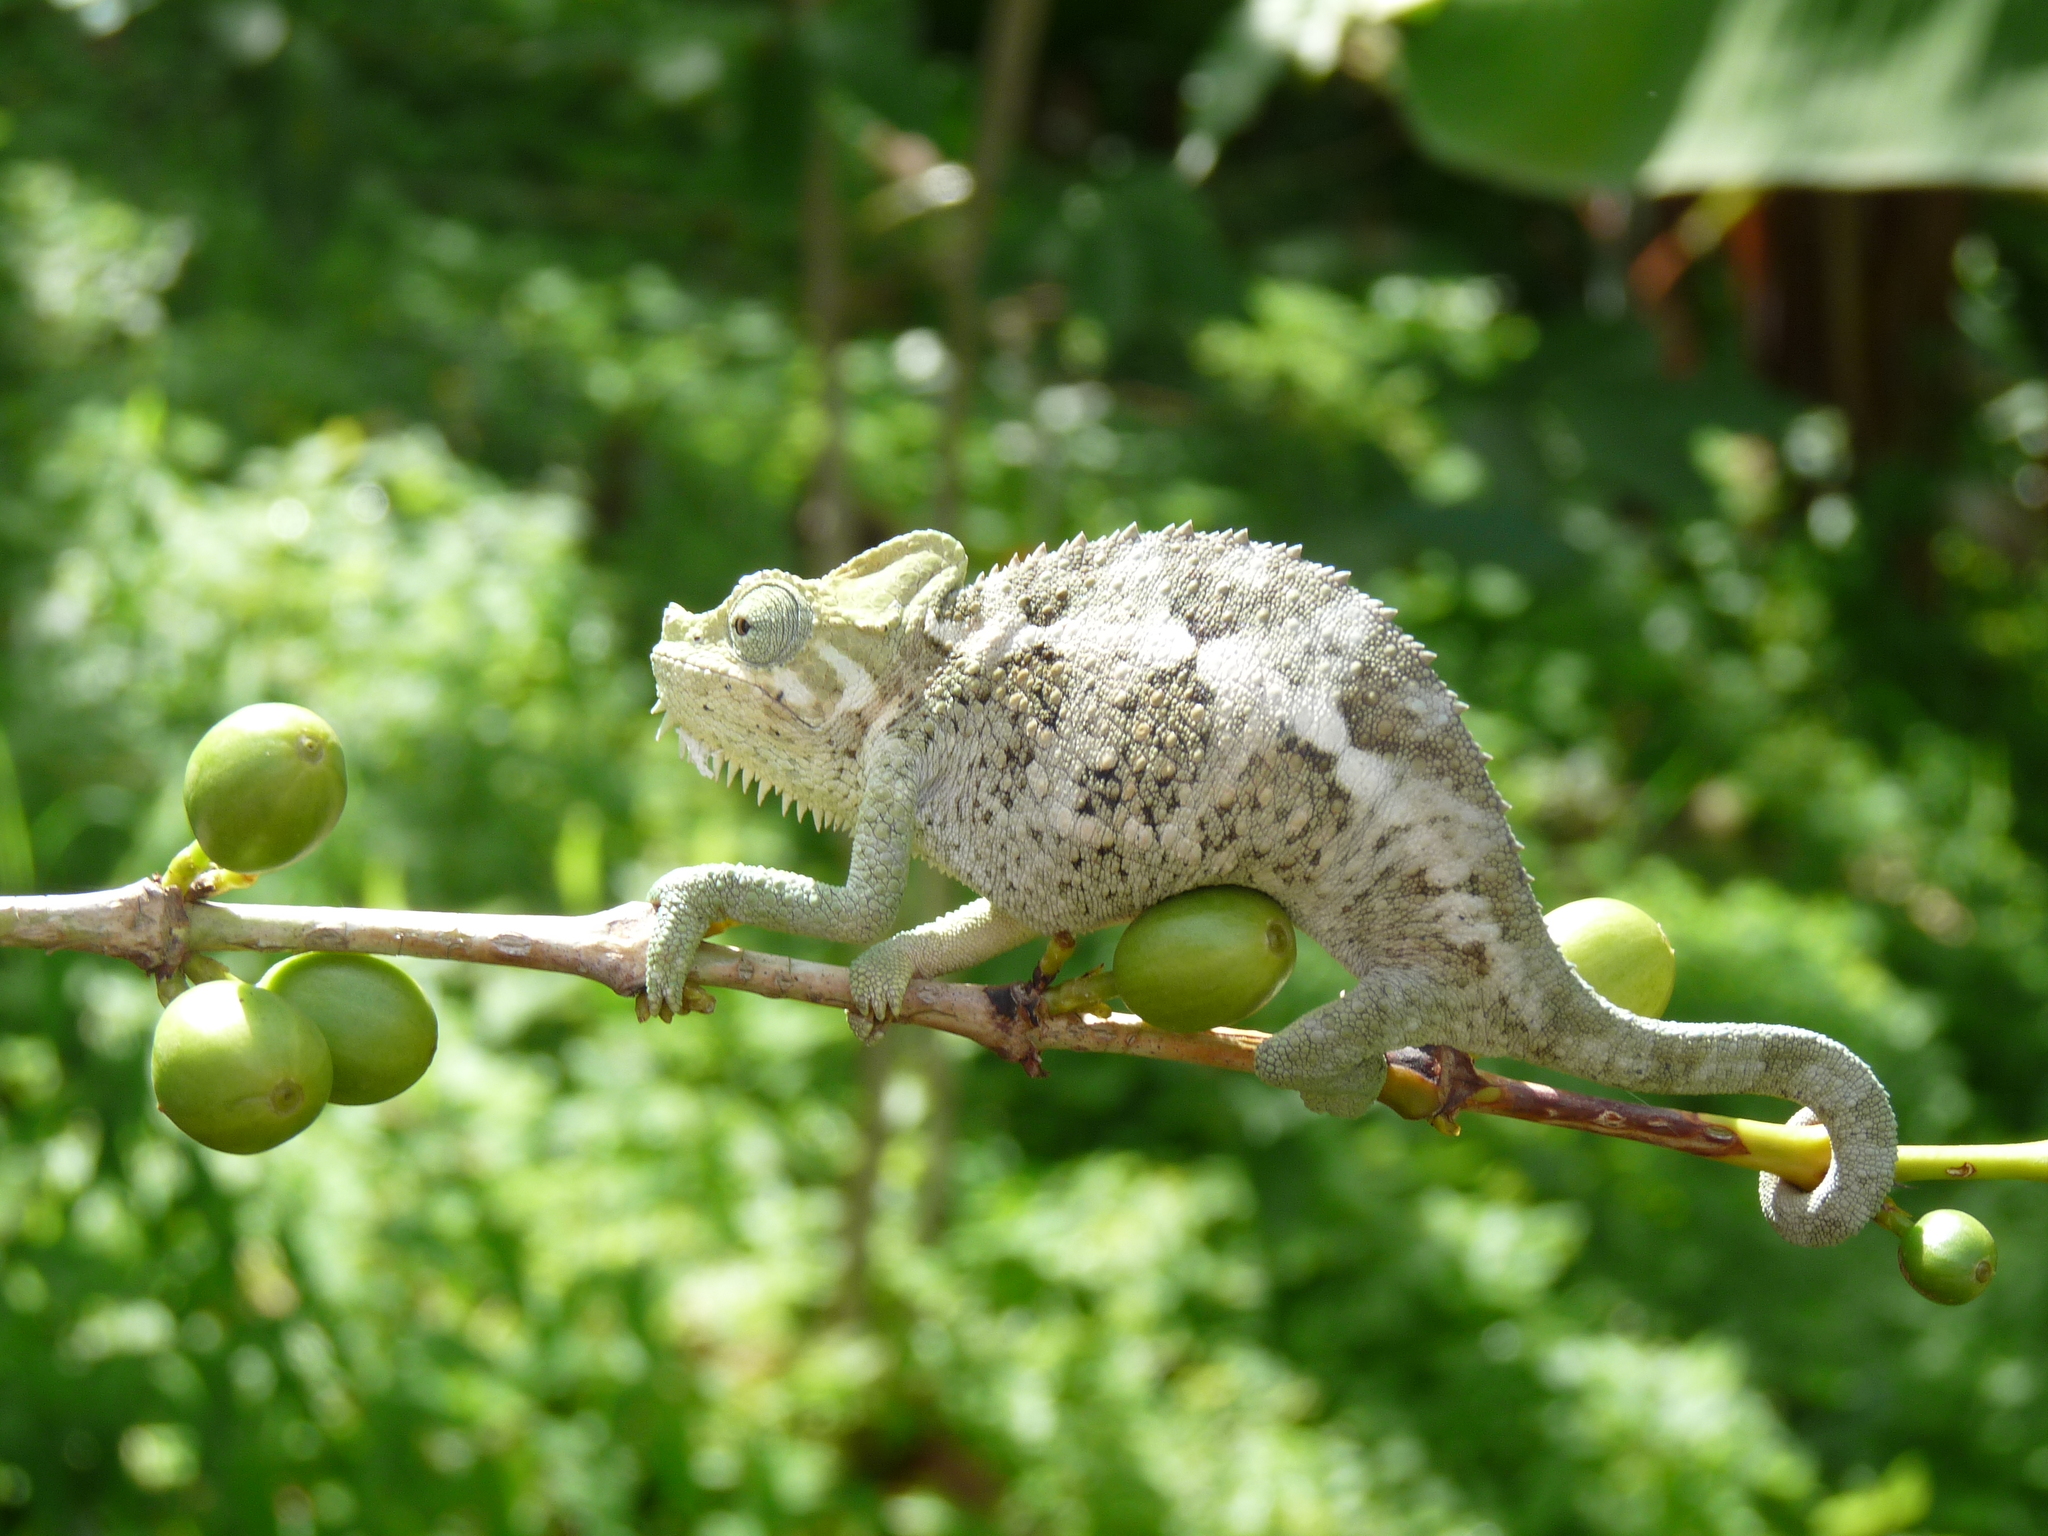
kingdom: Animalia
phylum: Chordata
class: Squamata
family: Chamaeleonidae
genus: Trioceros
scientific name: Trioceros hoehnelii
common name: High-casqued chameleon
